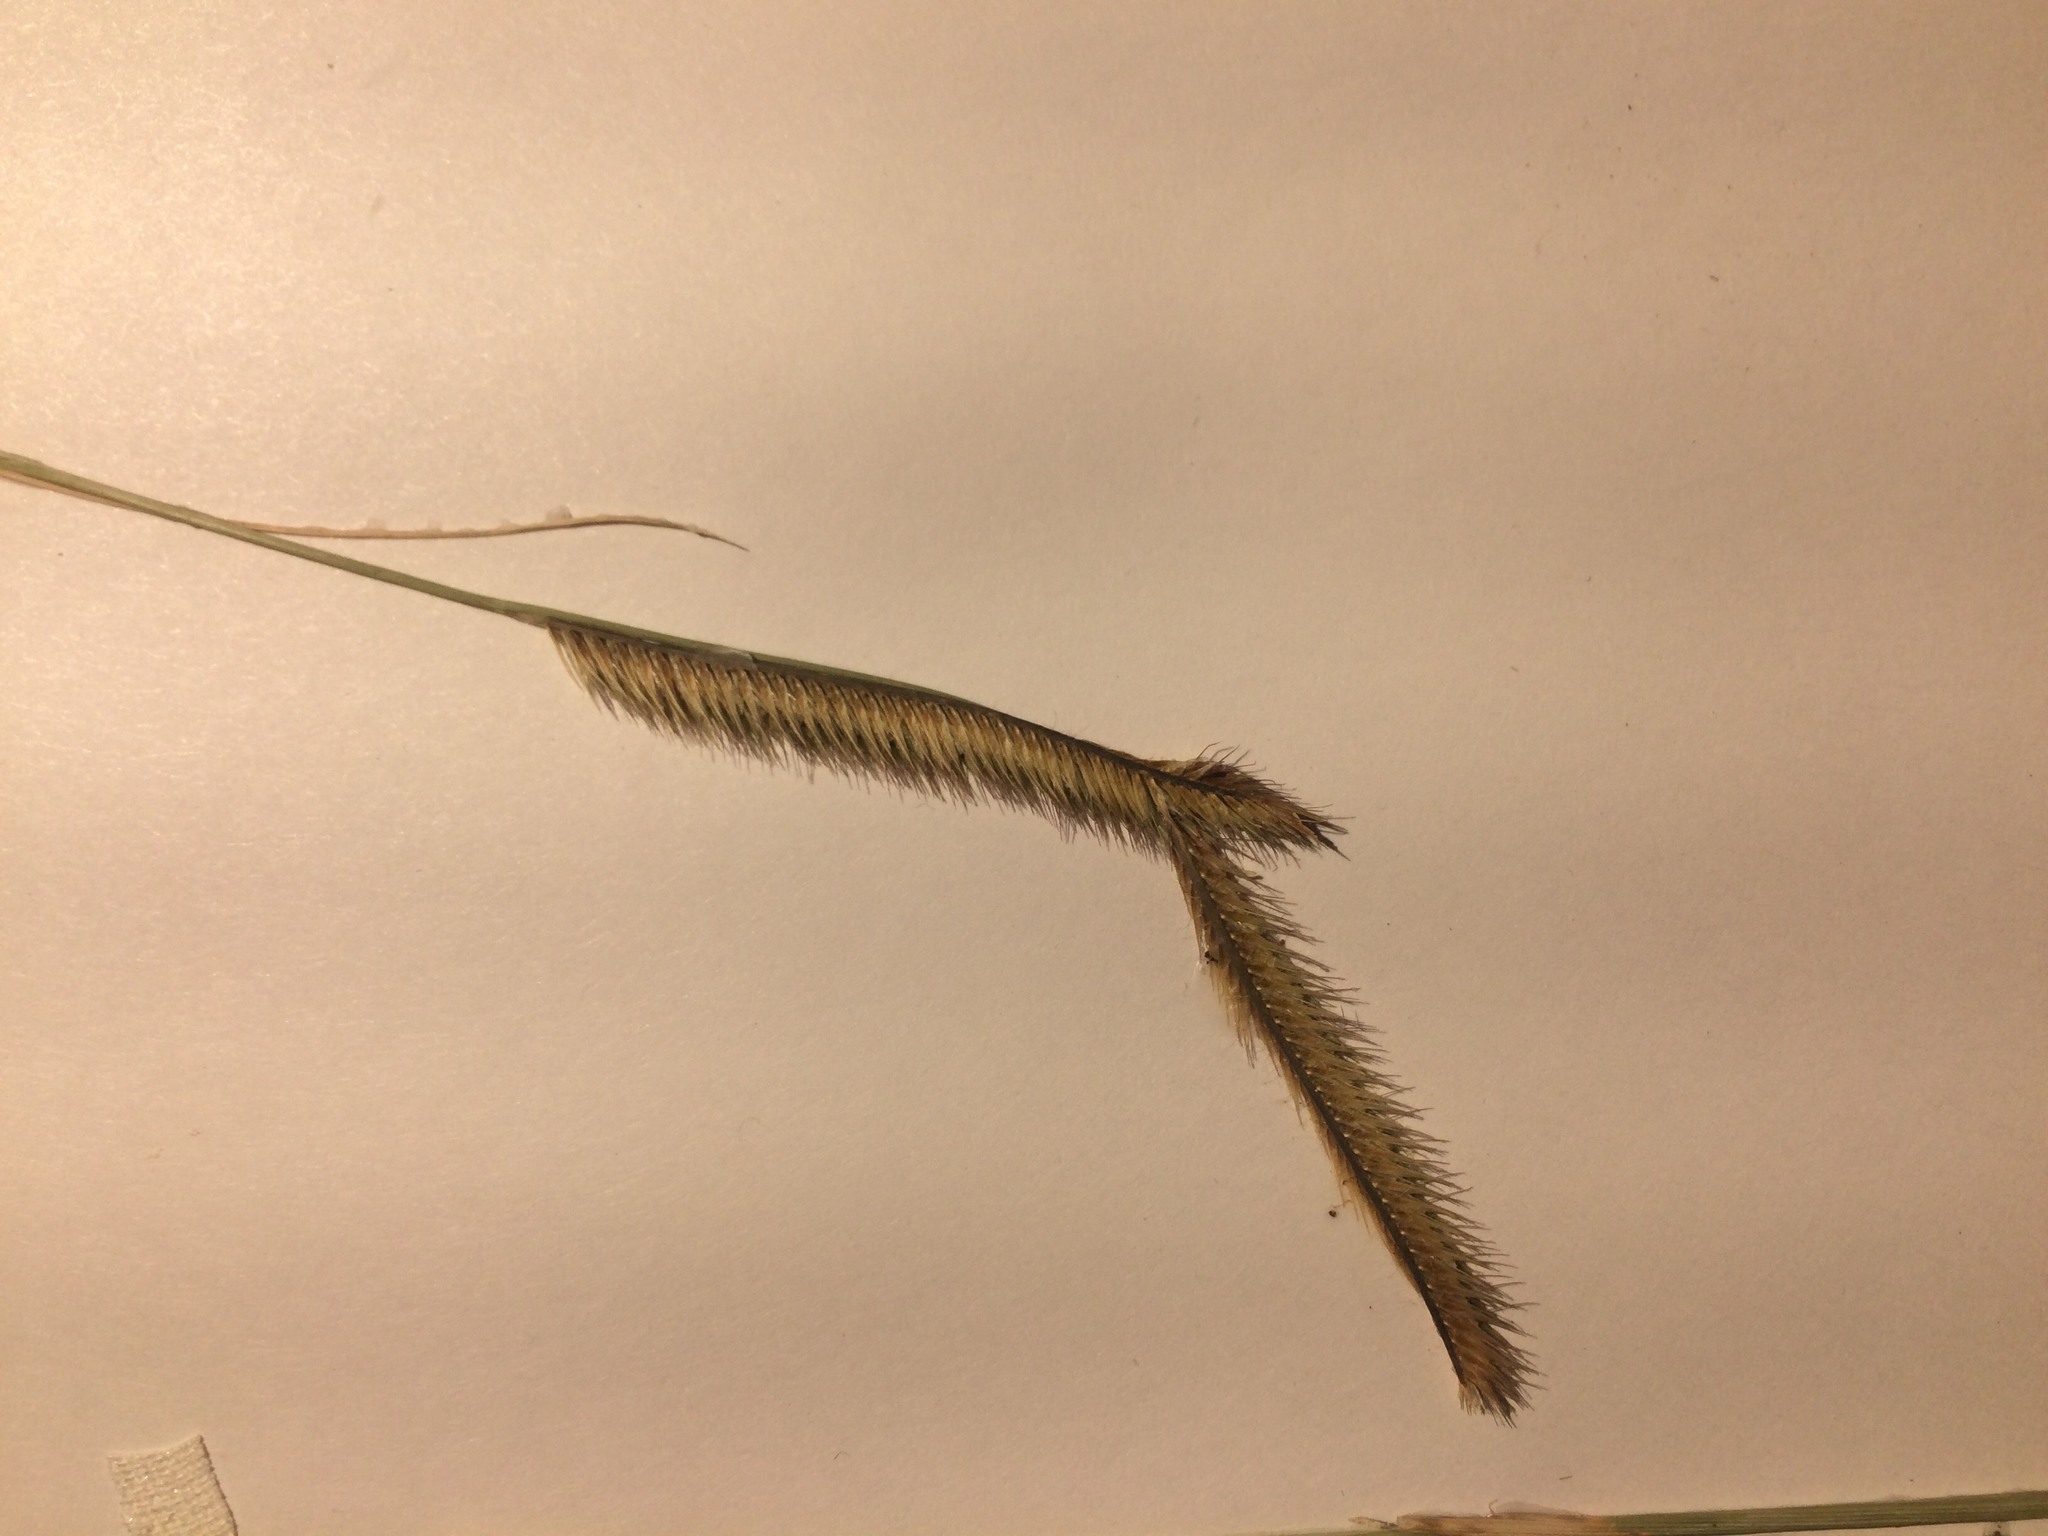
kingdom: Plantae
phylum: Tracheophyta
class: Liliopsida
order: Poales
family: Poaceae
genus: Bouteloua
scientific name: Bouteloua gracilis
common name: Blue grama
